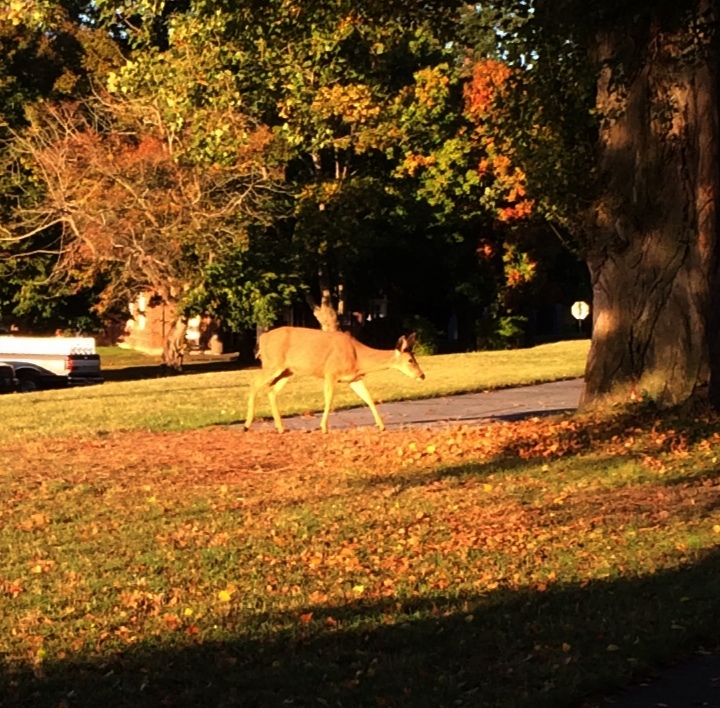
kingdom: Animalia
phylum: Chordata
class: Mammalia
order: Artiodactyla
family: Cervidae
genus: Odocoileus
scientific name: Odocoileus hemionus
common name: Mule deer
